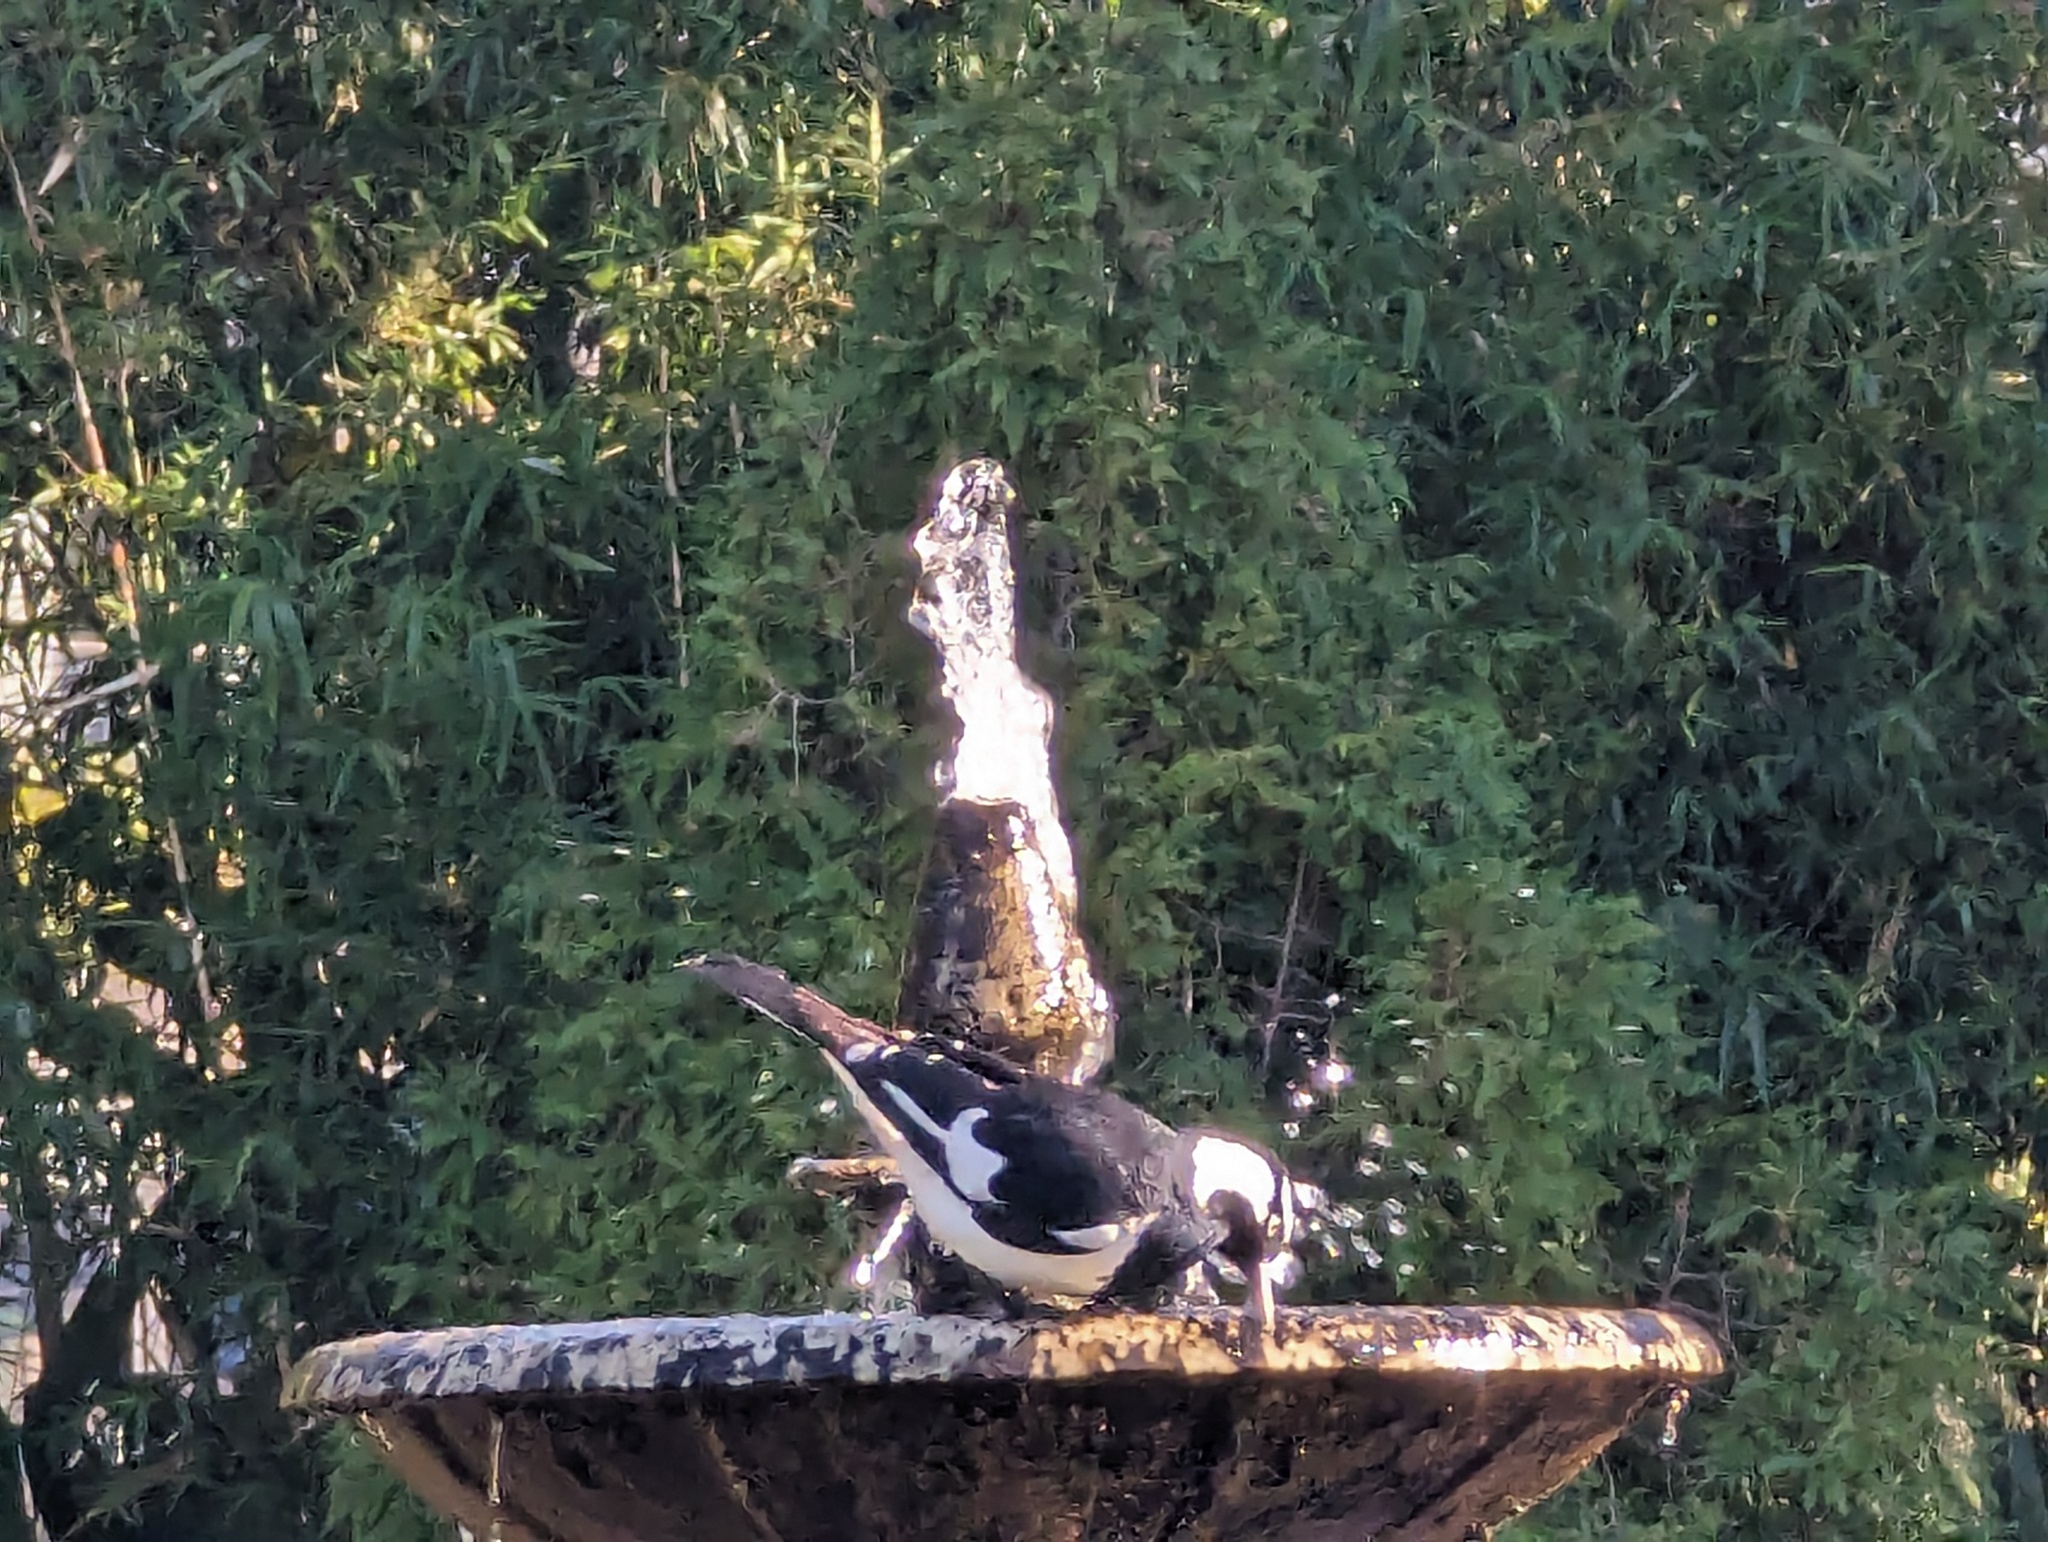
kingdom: Animalia
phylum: Chordata
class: Aves
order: Passeriformes
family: Monarchidae
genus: Grallina
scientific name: Grallina cyanoleuca
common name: Magpie-lark
